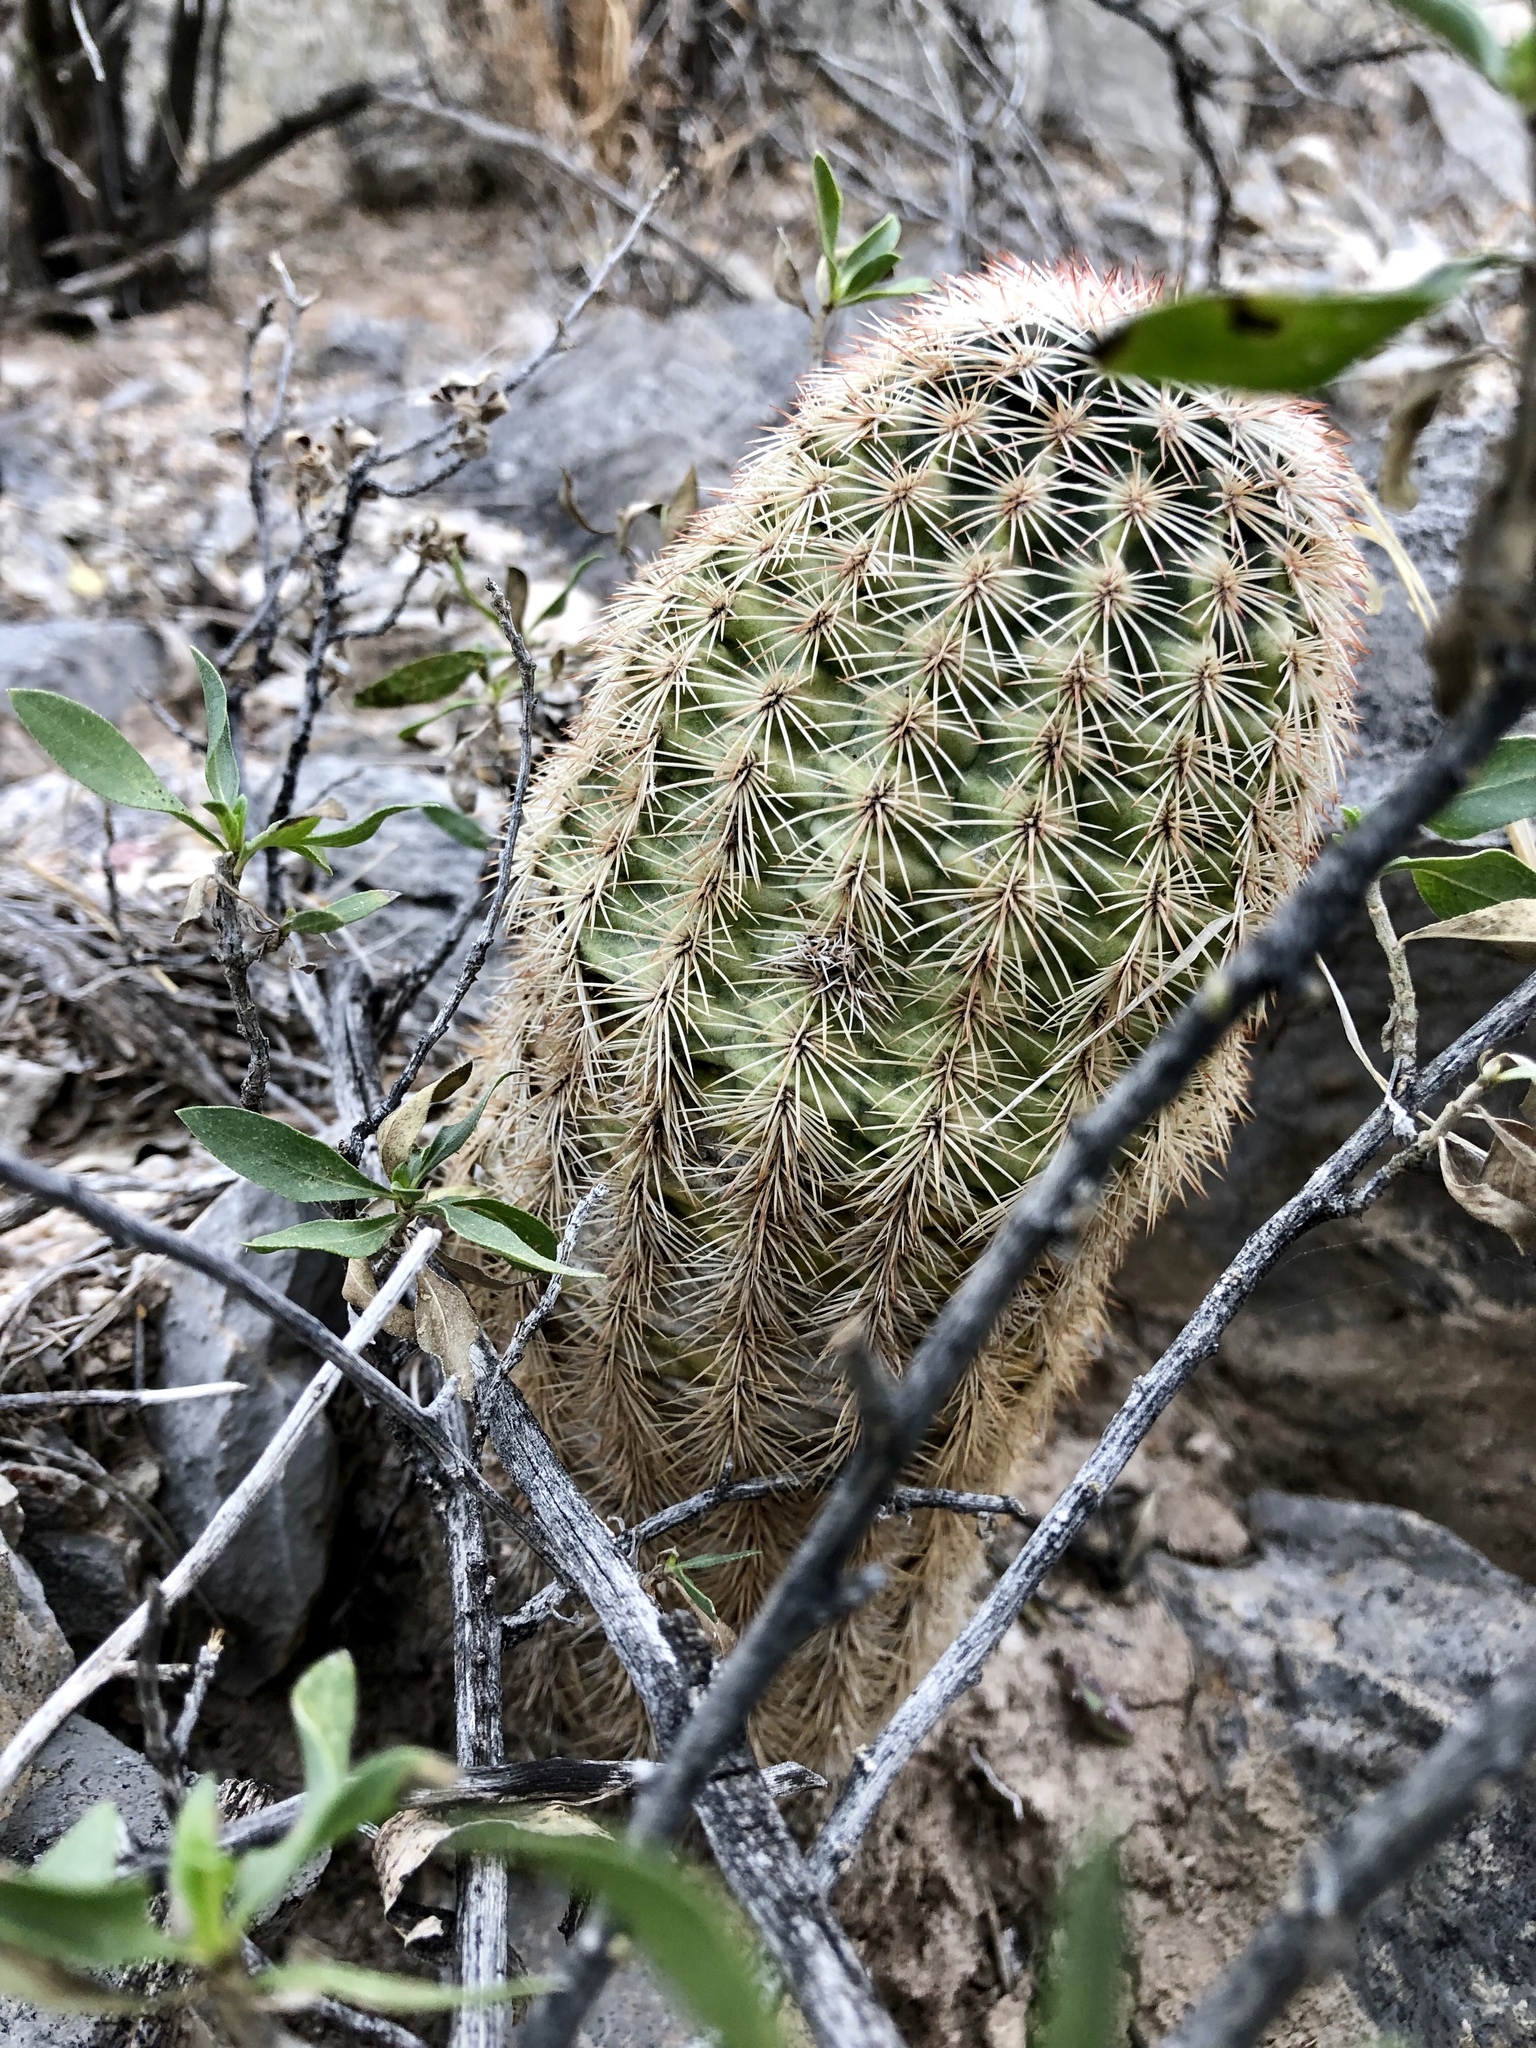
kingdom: Plantae
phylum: Tracheophyta
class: Magnoliopsida
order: Caryophyllales
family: Cactaceae
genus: Echinocereus
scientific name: Echinocereus dasyacanthus
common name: Spiny hedgehog cactus
